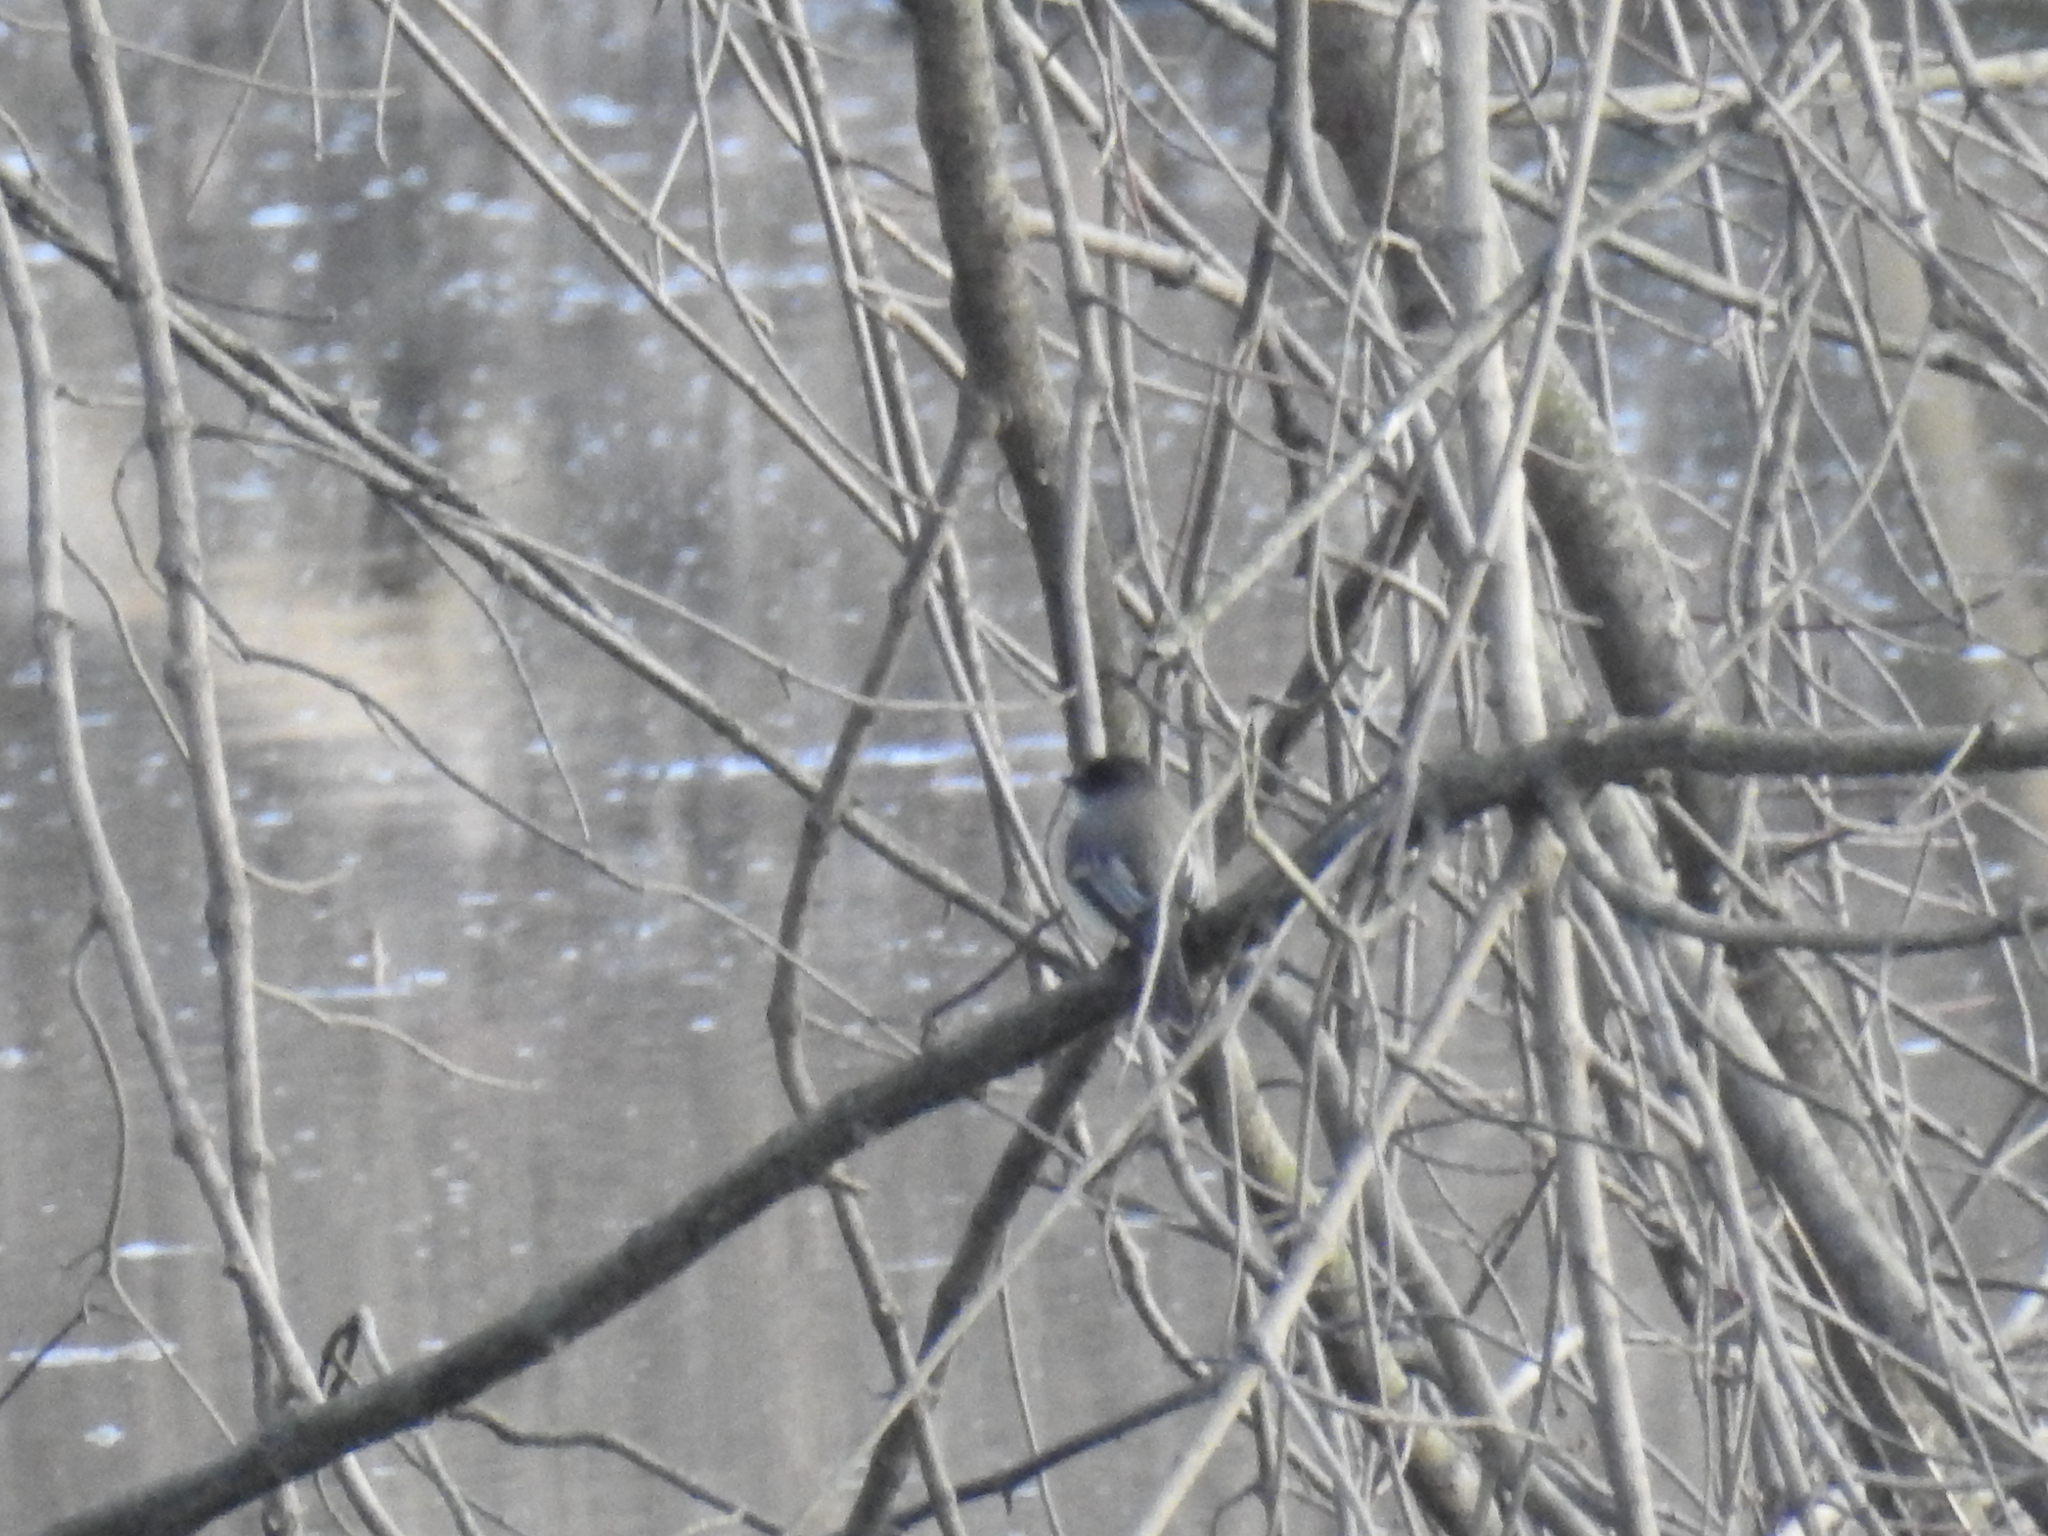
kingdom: Animalia
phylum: Chordata
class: Aves
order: Passeriformes
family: Tyrannidae
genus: Sayornis
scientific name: Sayornis phoebe
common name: Eastern phoebe
